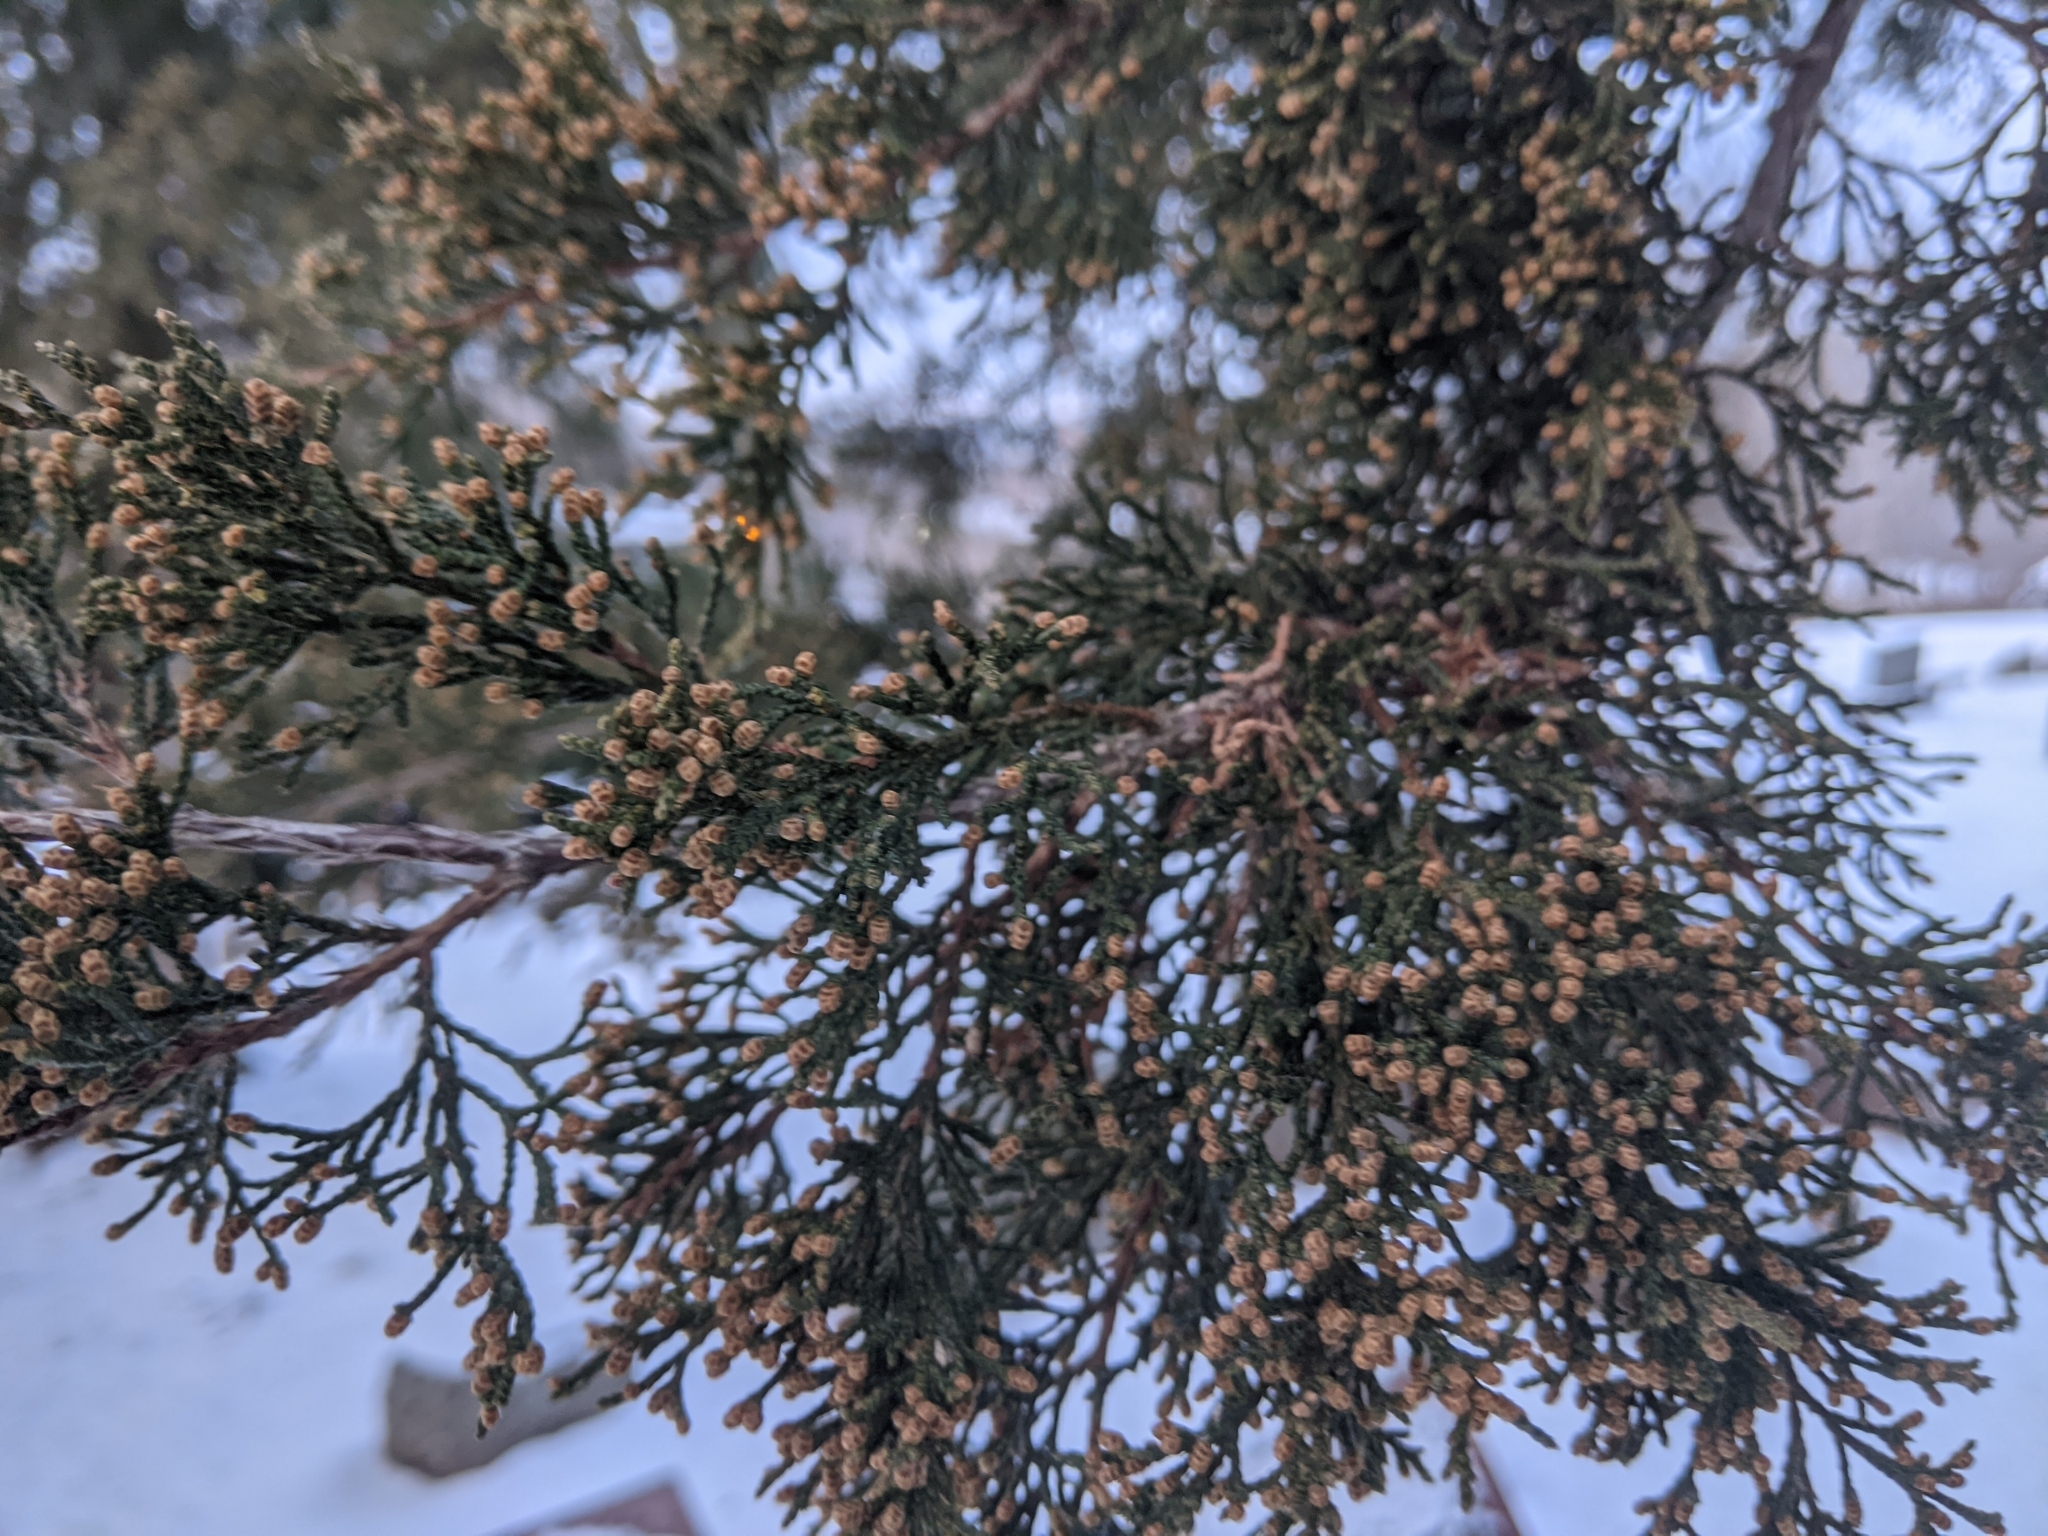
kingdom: Plantae
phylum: Tracheophyta
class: Pinopsida
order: Pinales
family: Cupressaceae
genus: Juniperus
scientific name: Juniperus virginiana
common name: Red juniper
